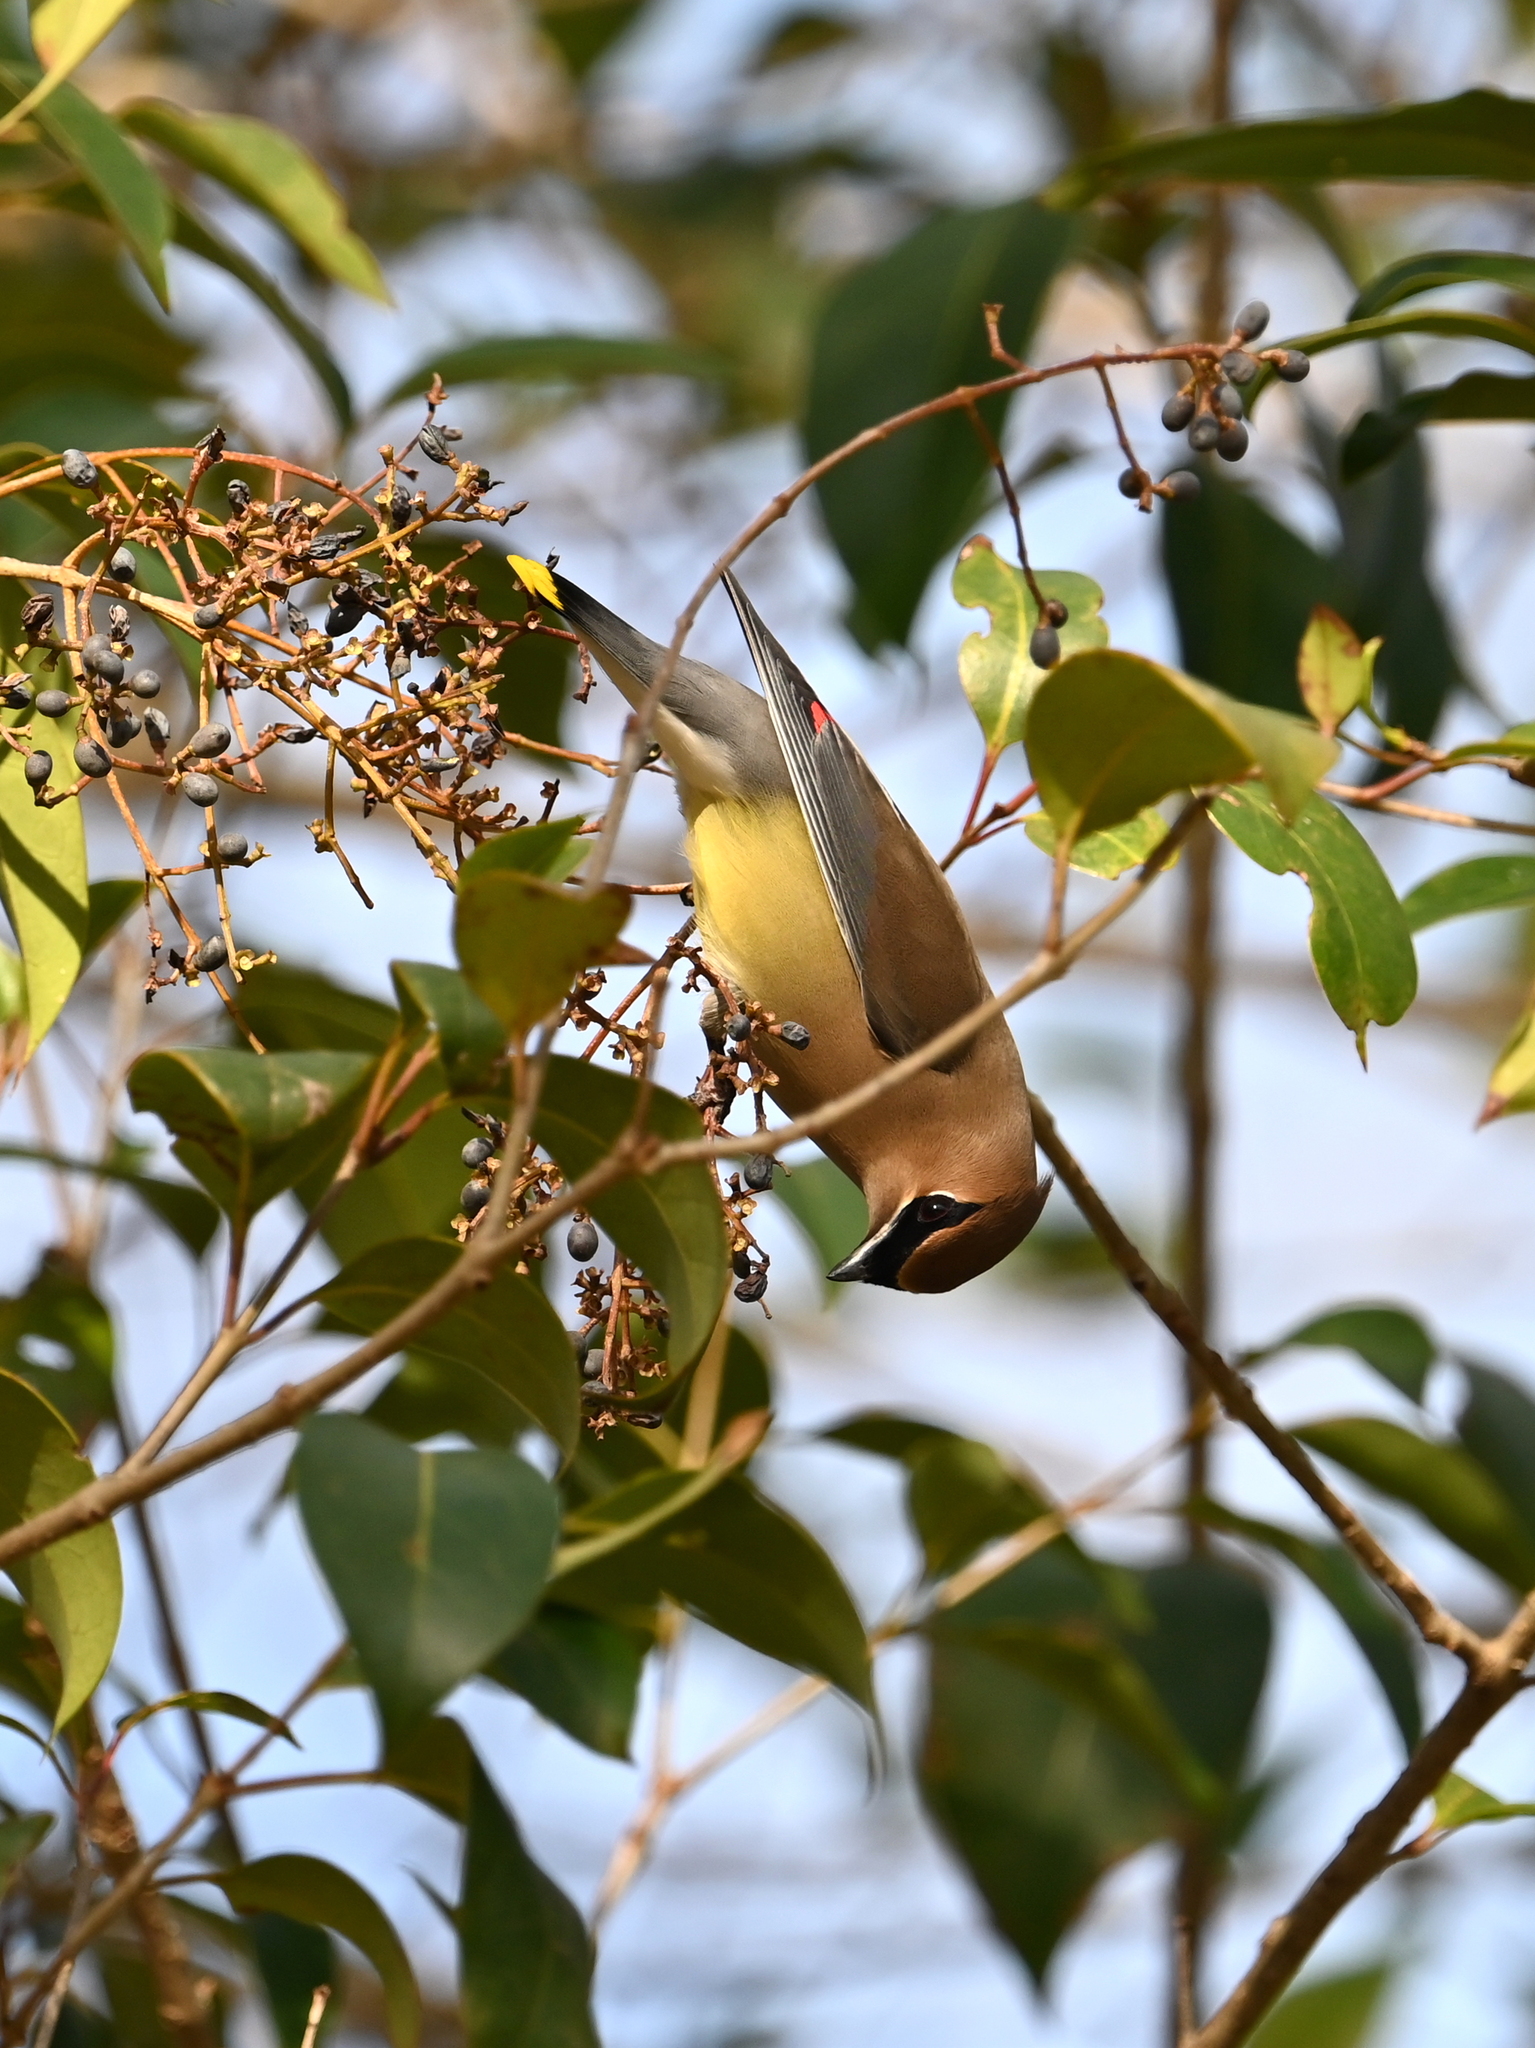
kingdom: Animalia
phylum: Chordata
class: Aves
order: Passeriformes
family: Bombycillidae
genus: Bombycilla
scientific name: Bombycilla cedrorum
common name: Cedar waxwing
